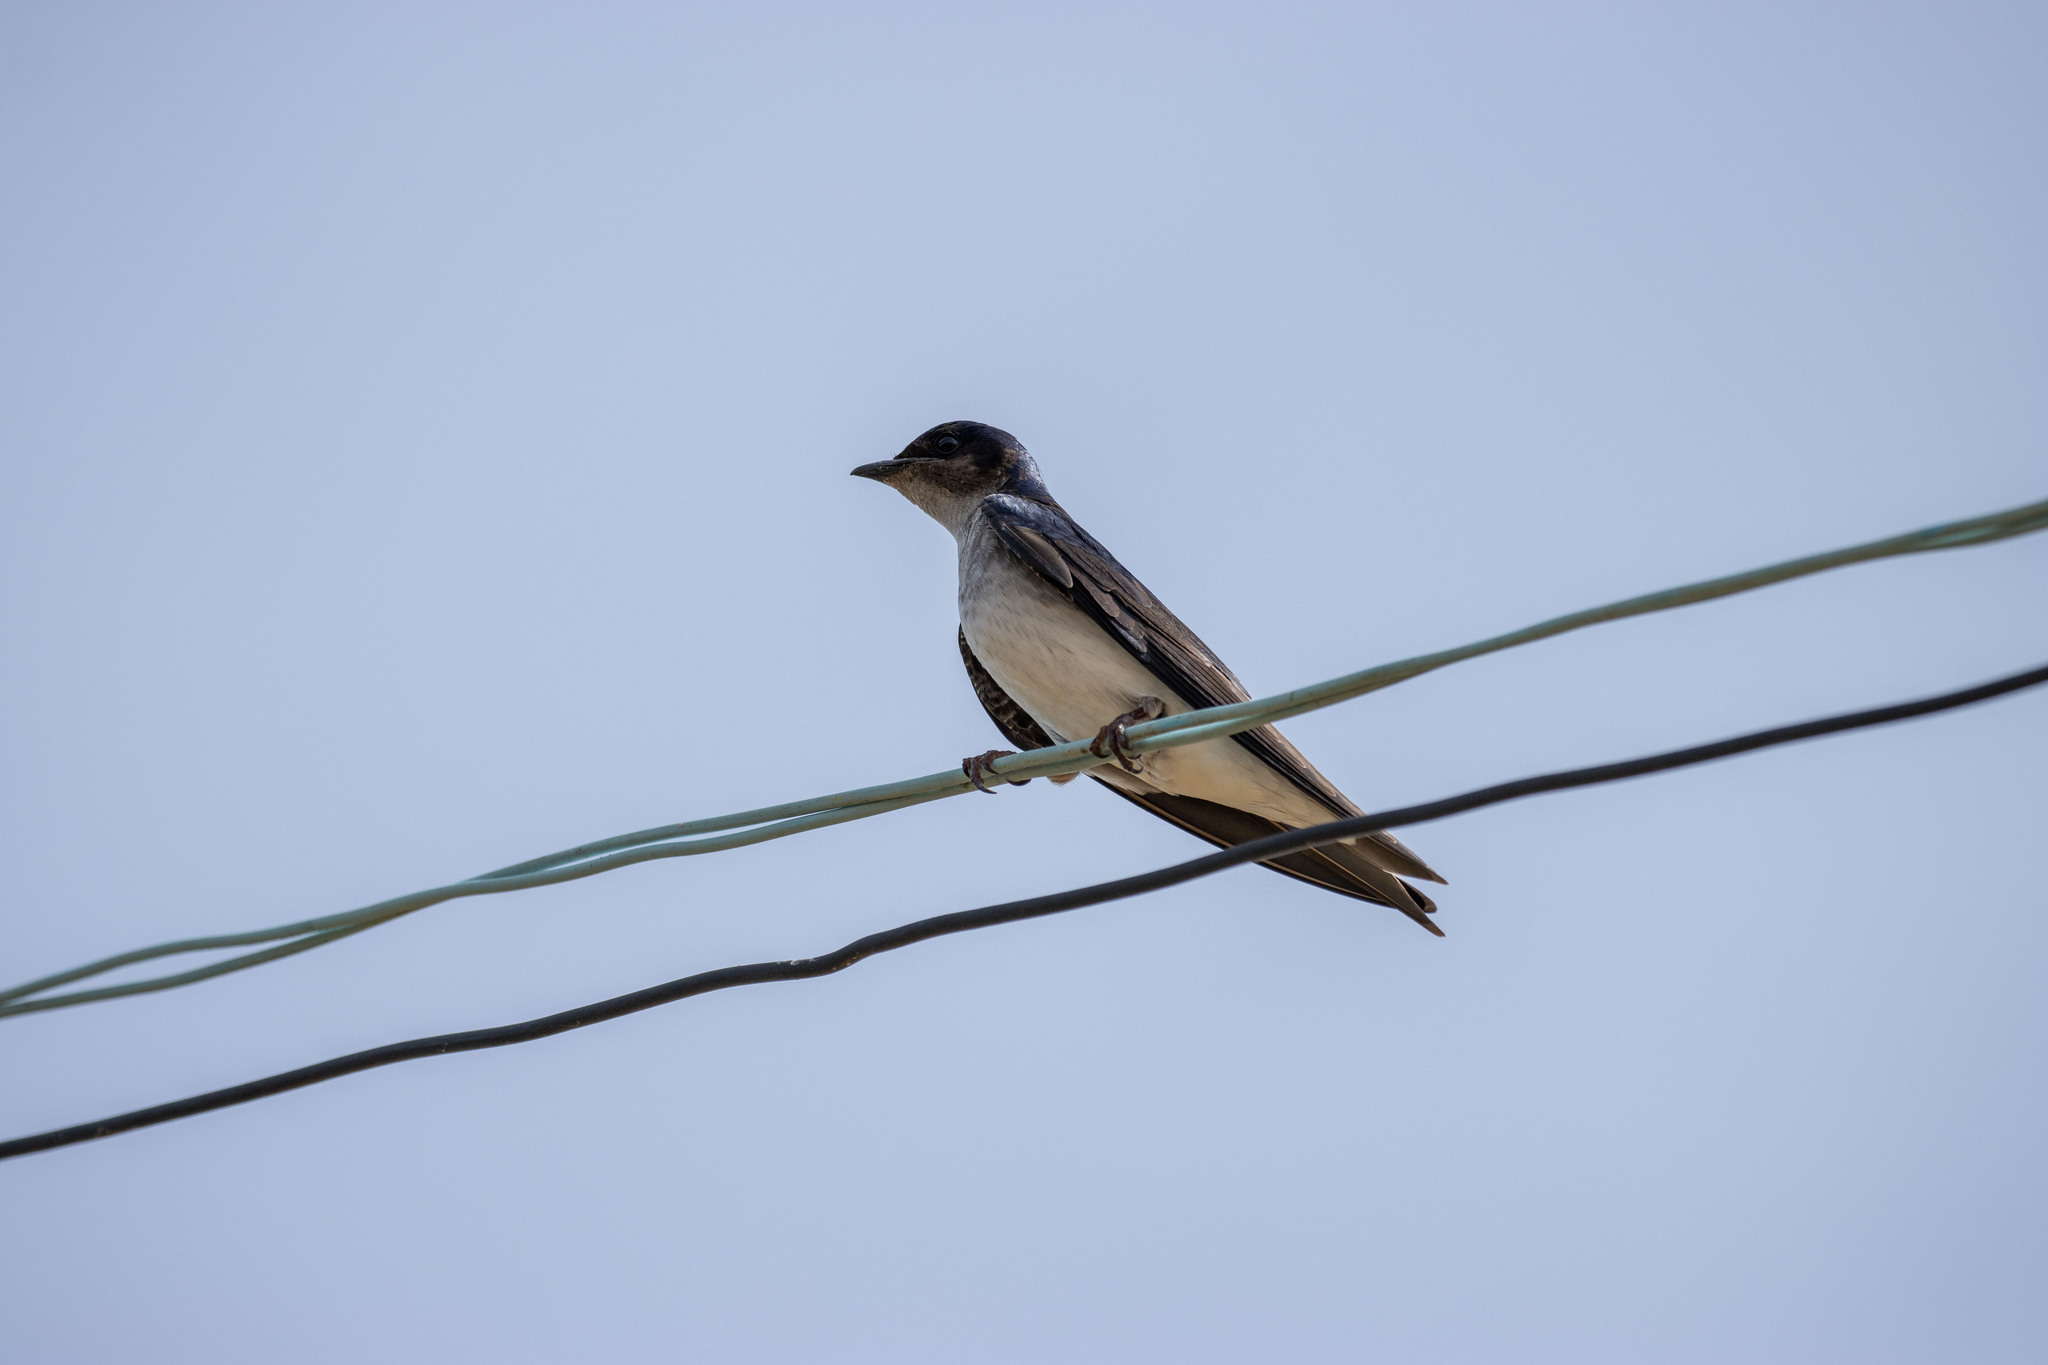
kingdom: Animalia
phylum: Chordata
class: Aves
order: Passeriformes
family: Hirundinidae
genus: Progne
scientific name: Progne chalybea
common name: Grey-breasted martin
